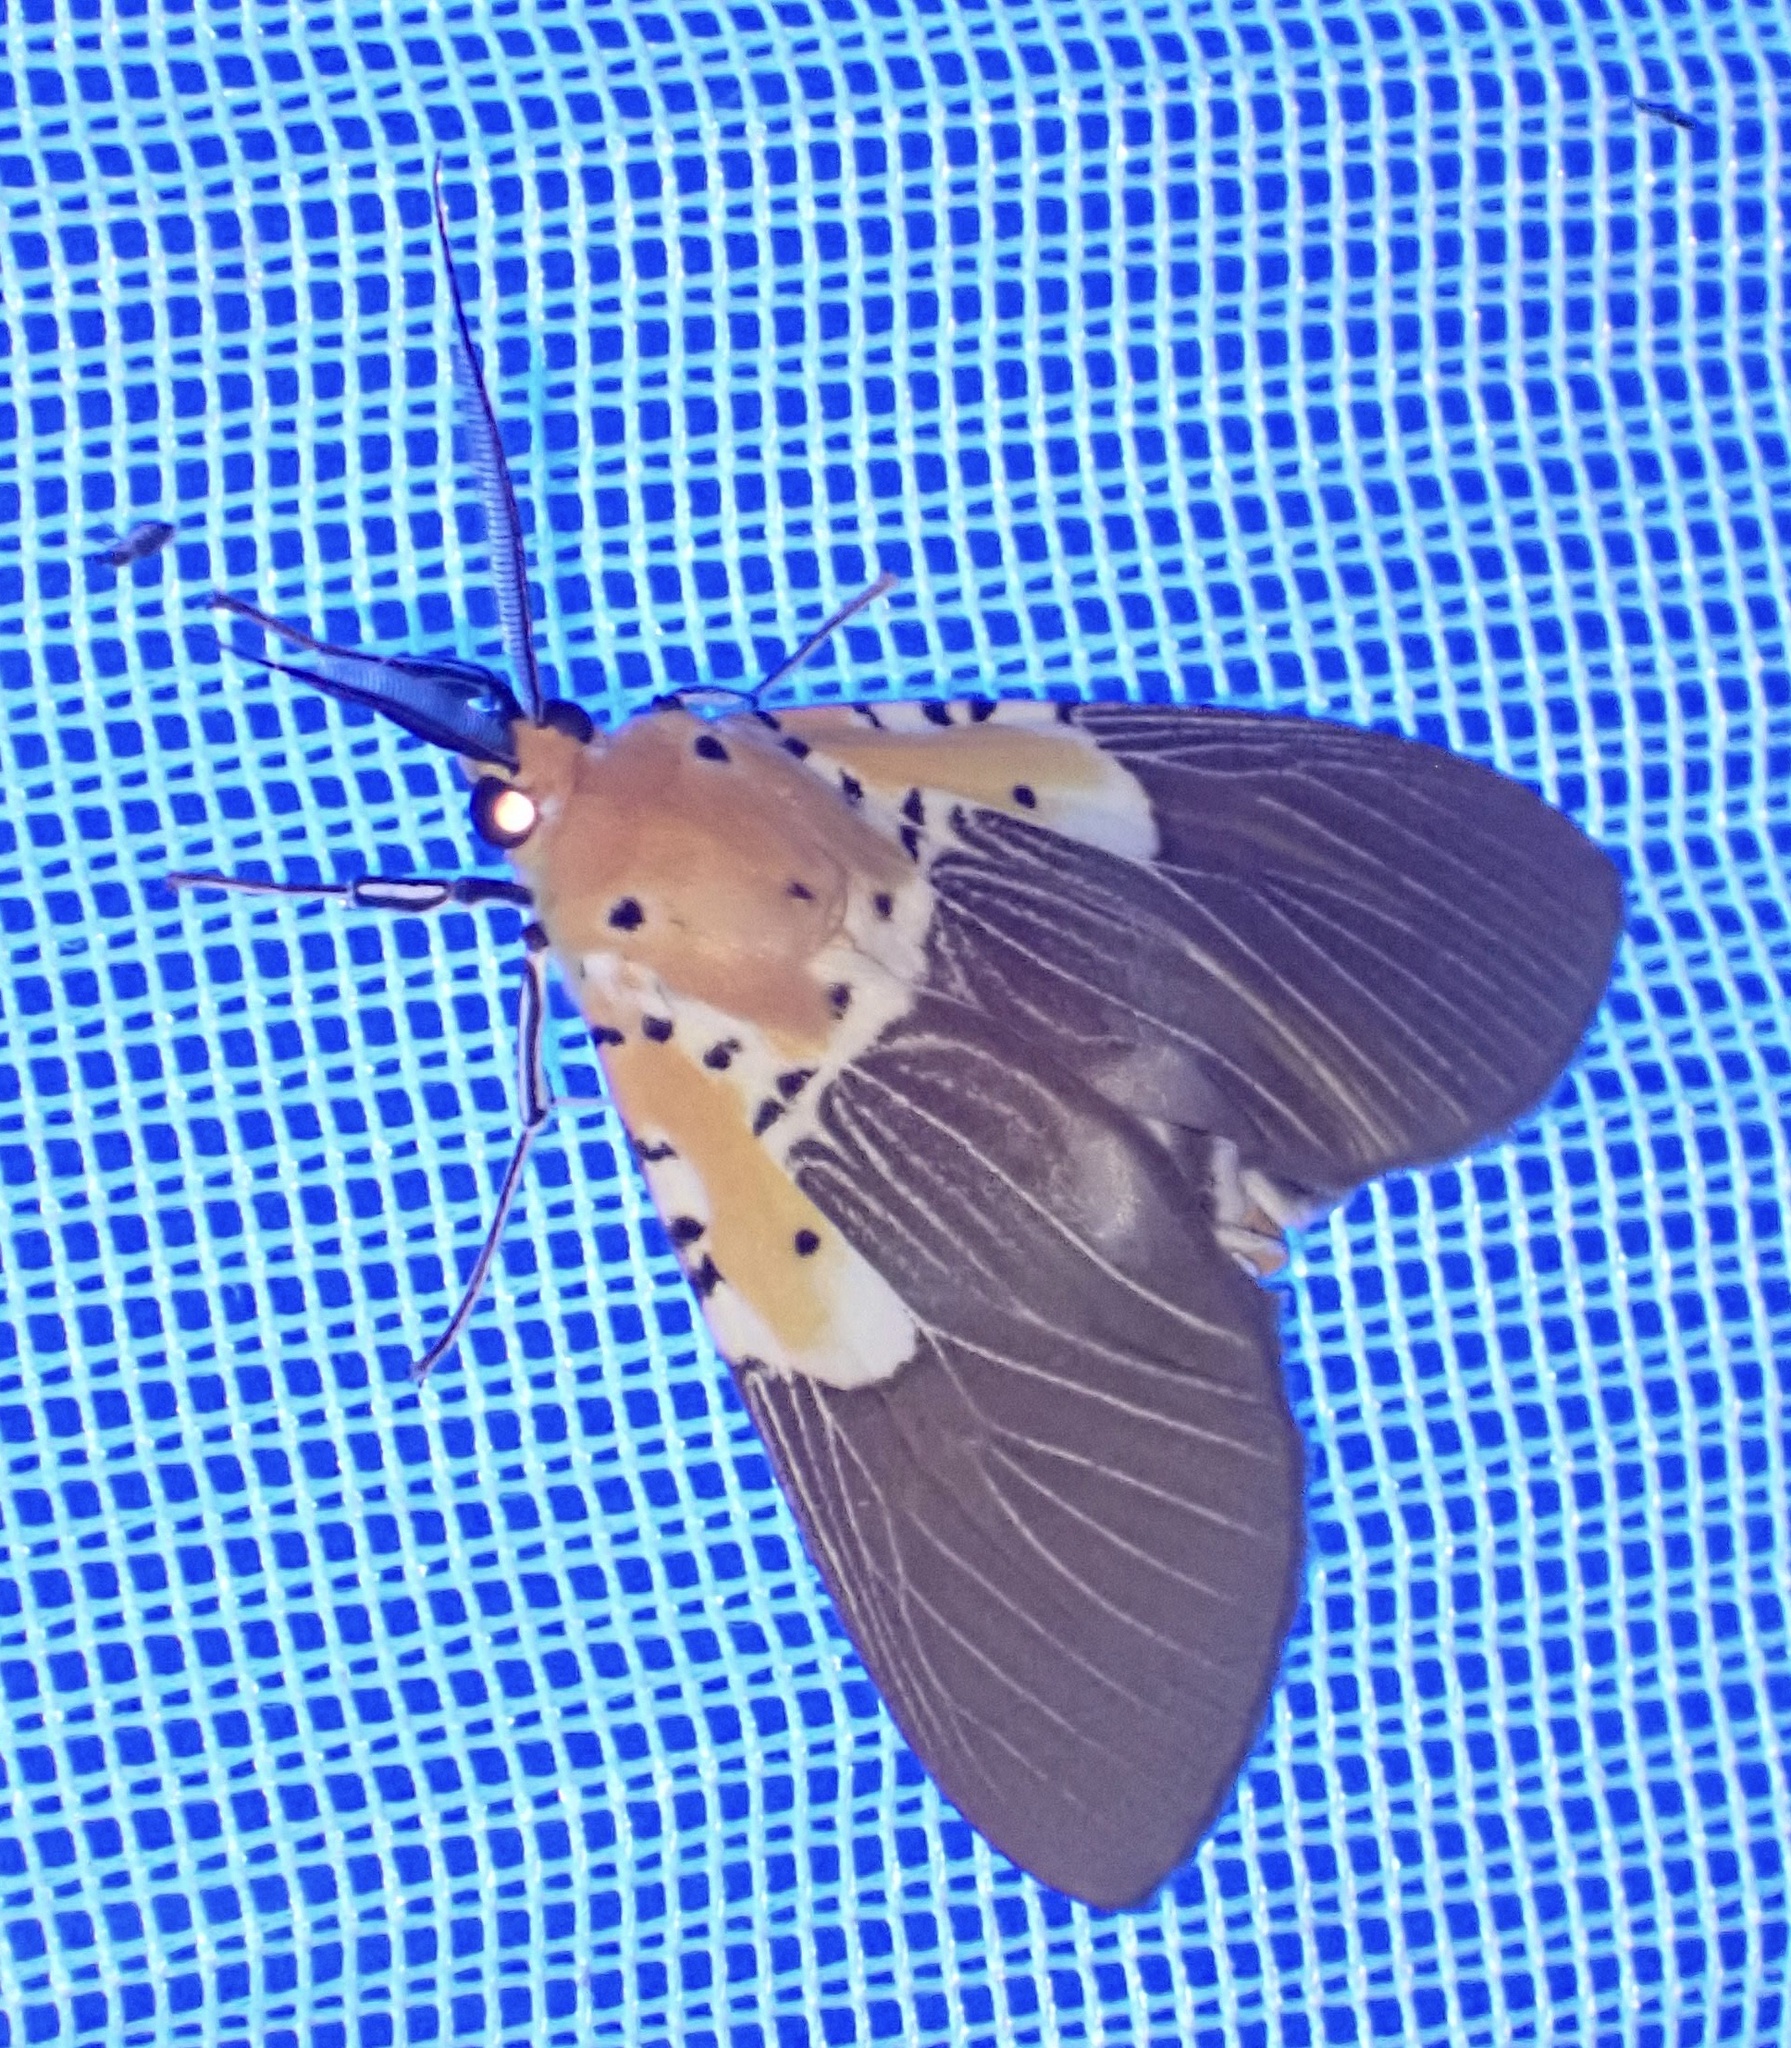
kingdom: Animalia
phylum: Arthropoda
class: Insecta
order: Lepidoptera
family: Erebidae
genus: Asota
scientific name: Asota speciosa
